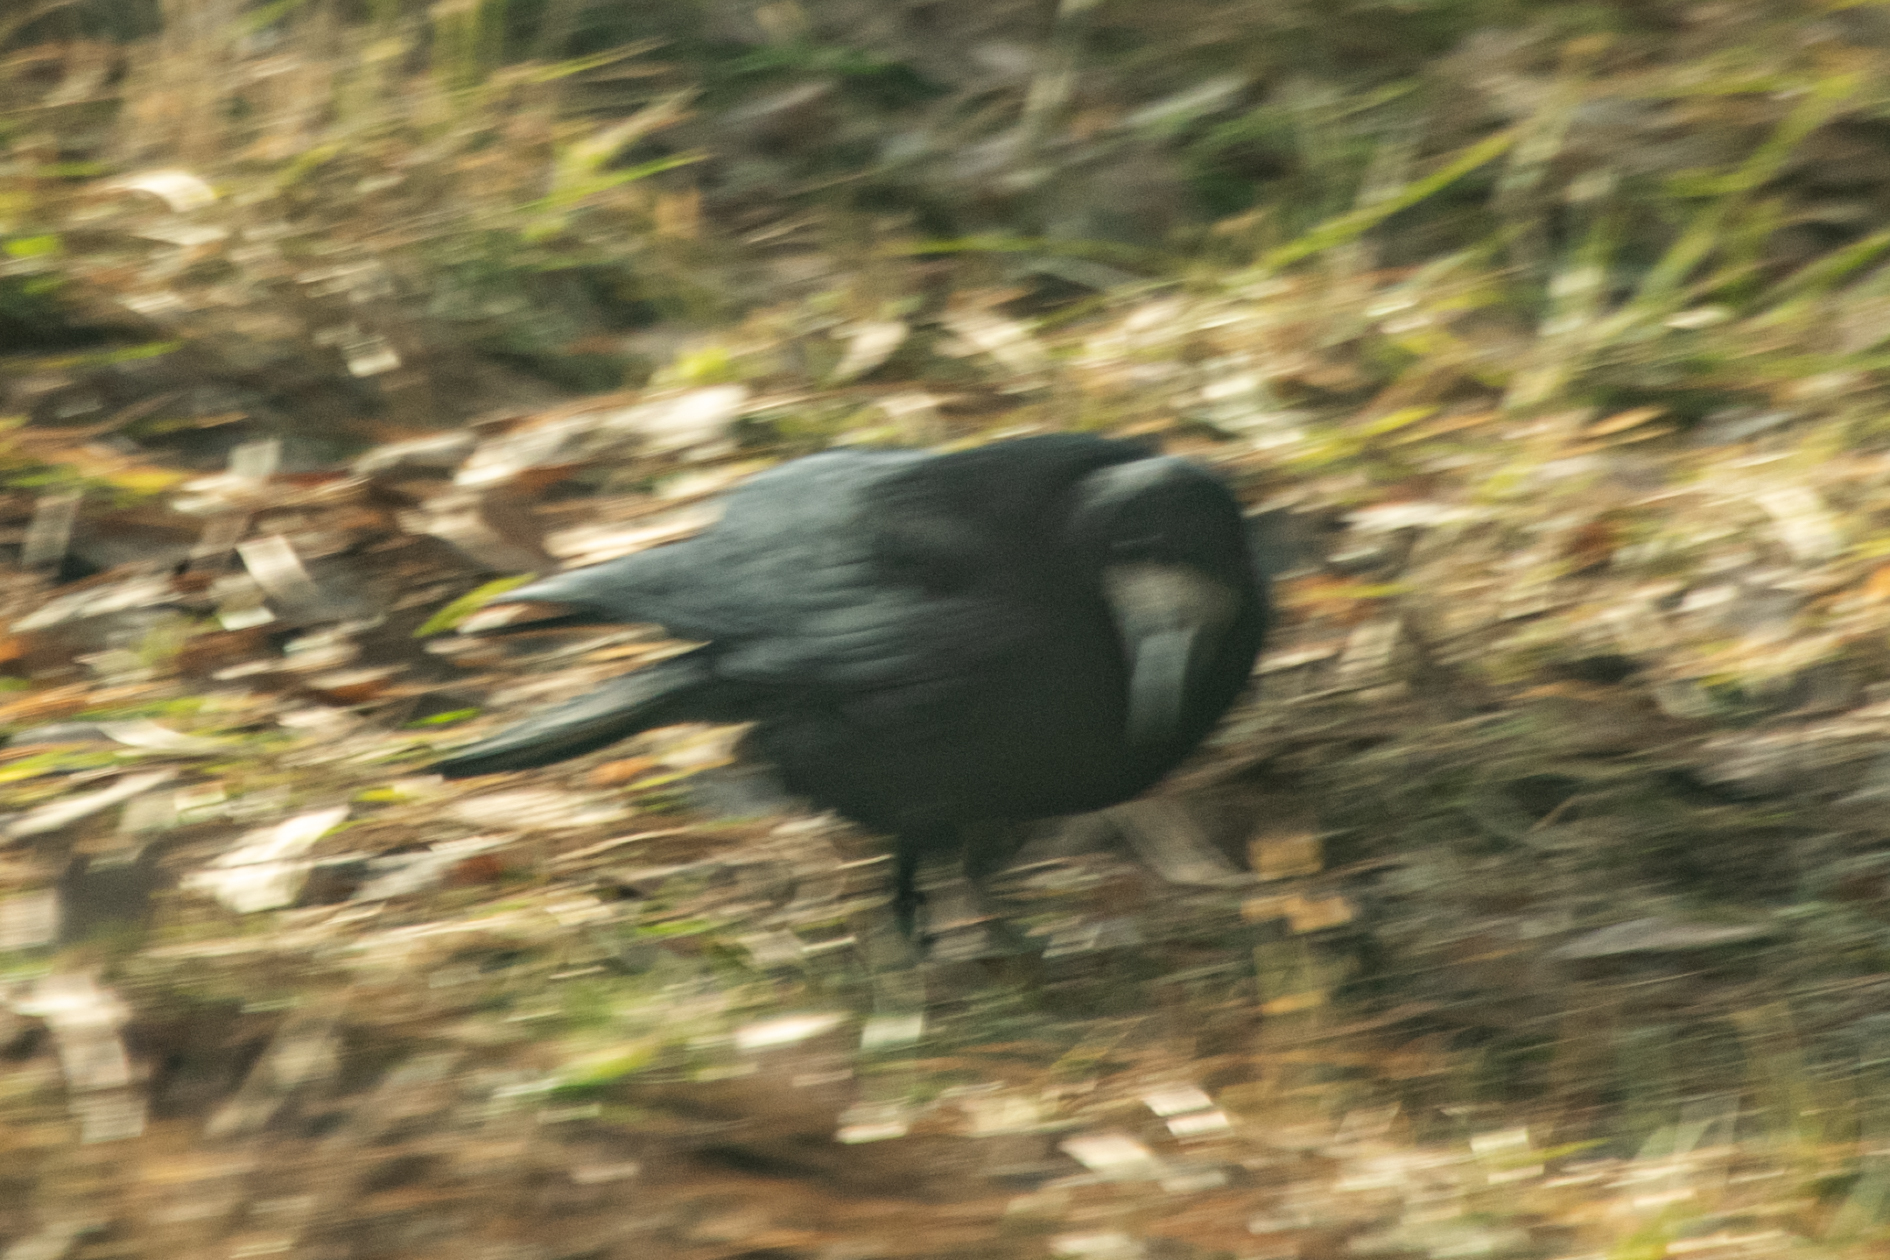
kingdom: Animalia
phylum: Chordata
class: Aves
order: Passeriformes
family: Corvidae
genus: Corvus
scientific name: Corvus frugilegus
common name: Rook
